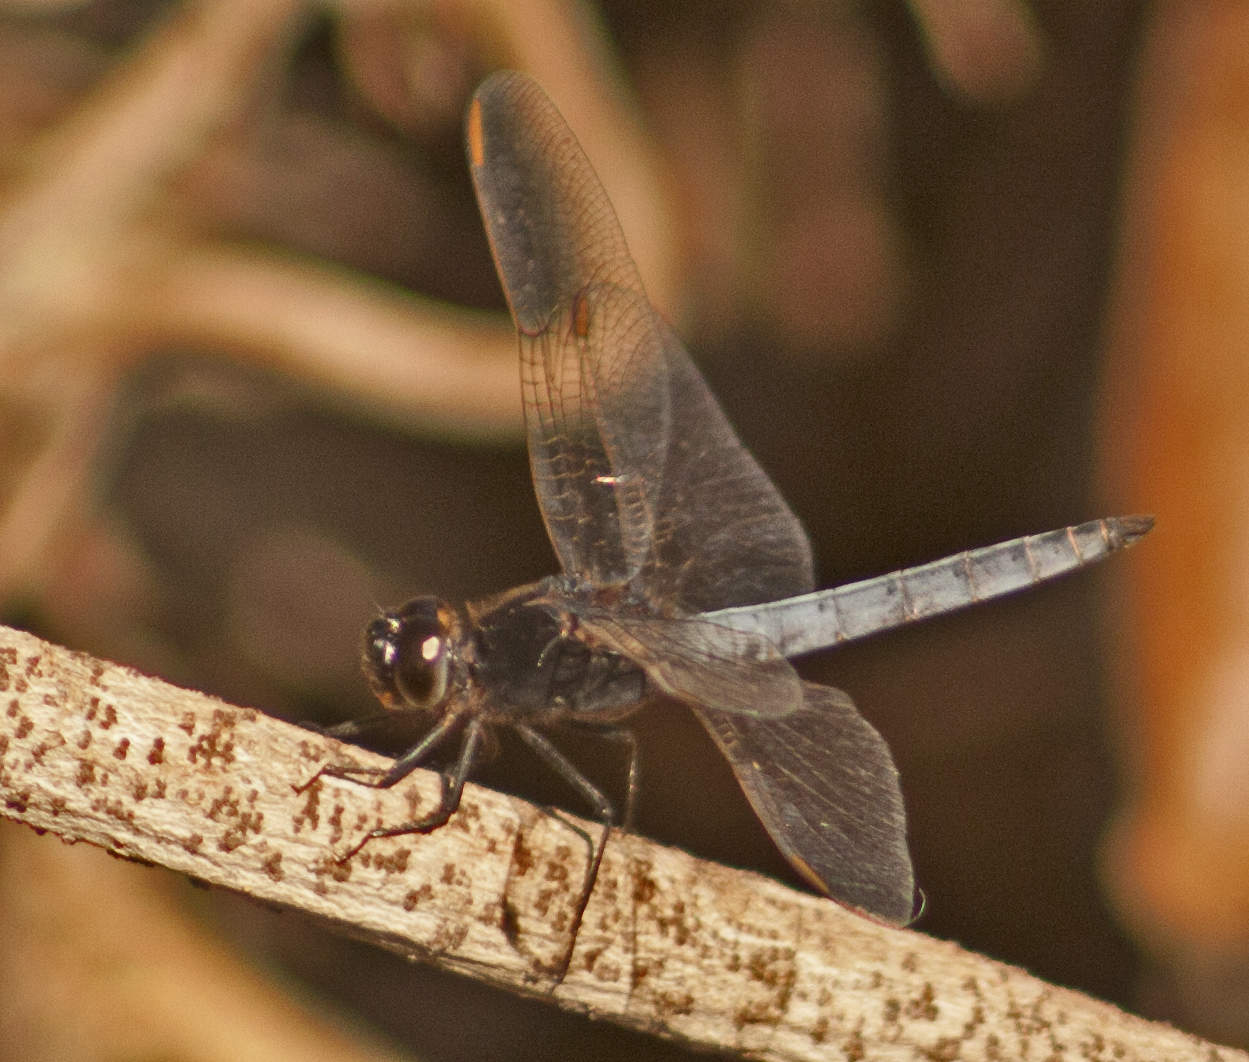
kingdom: Animalia
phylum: Arthropoda
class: Insecta
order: Odonata
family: Libellulidae
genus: Crocothemis
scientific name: Crocothemis nigrifrons
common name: Black-headed skimmer
